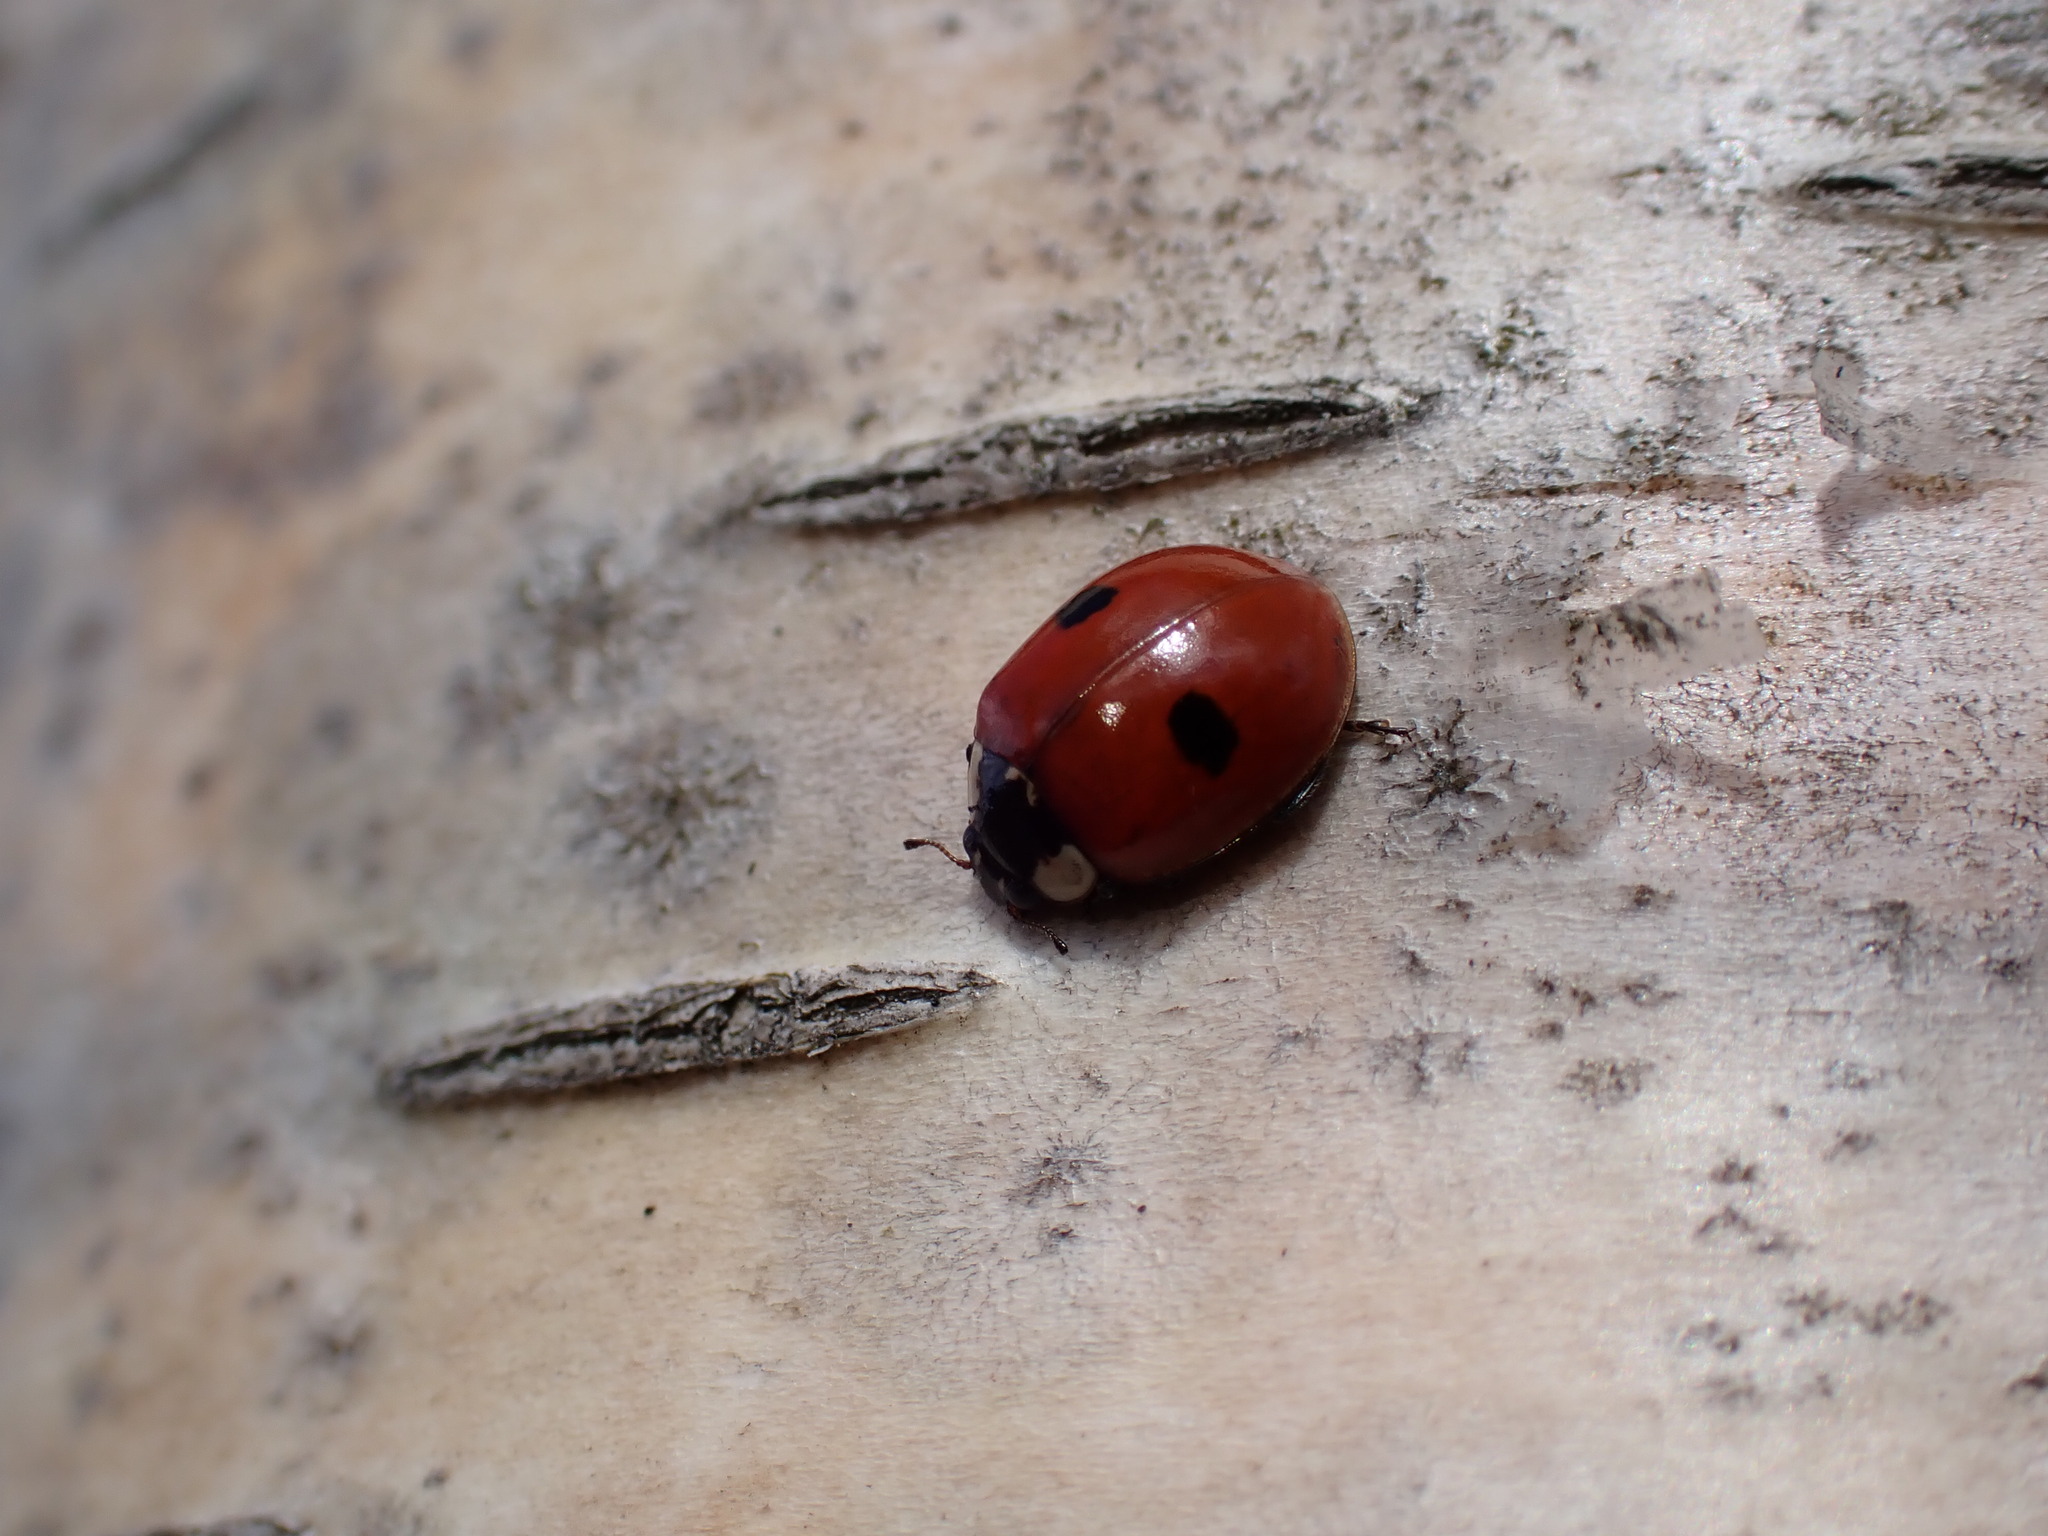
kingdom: Animalia
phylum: Arthropoda
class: Insecta
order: Coleoptera
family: Coccinellidae
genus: Adalia
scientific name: Adalia bipunctata
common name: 2-spot ladybird
